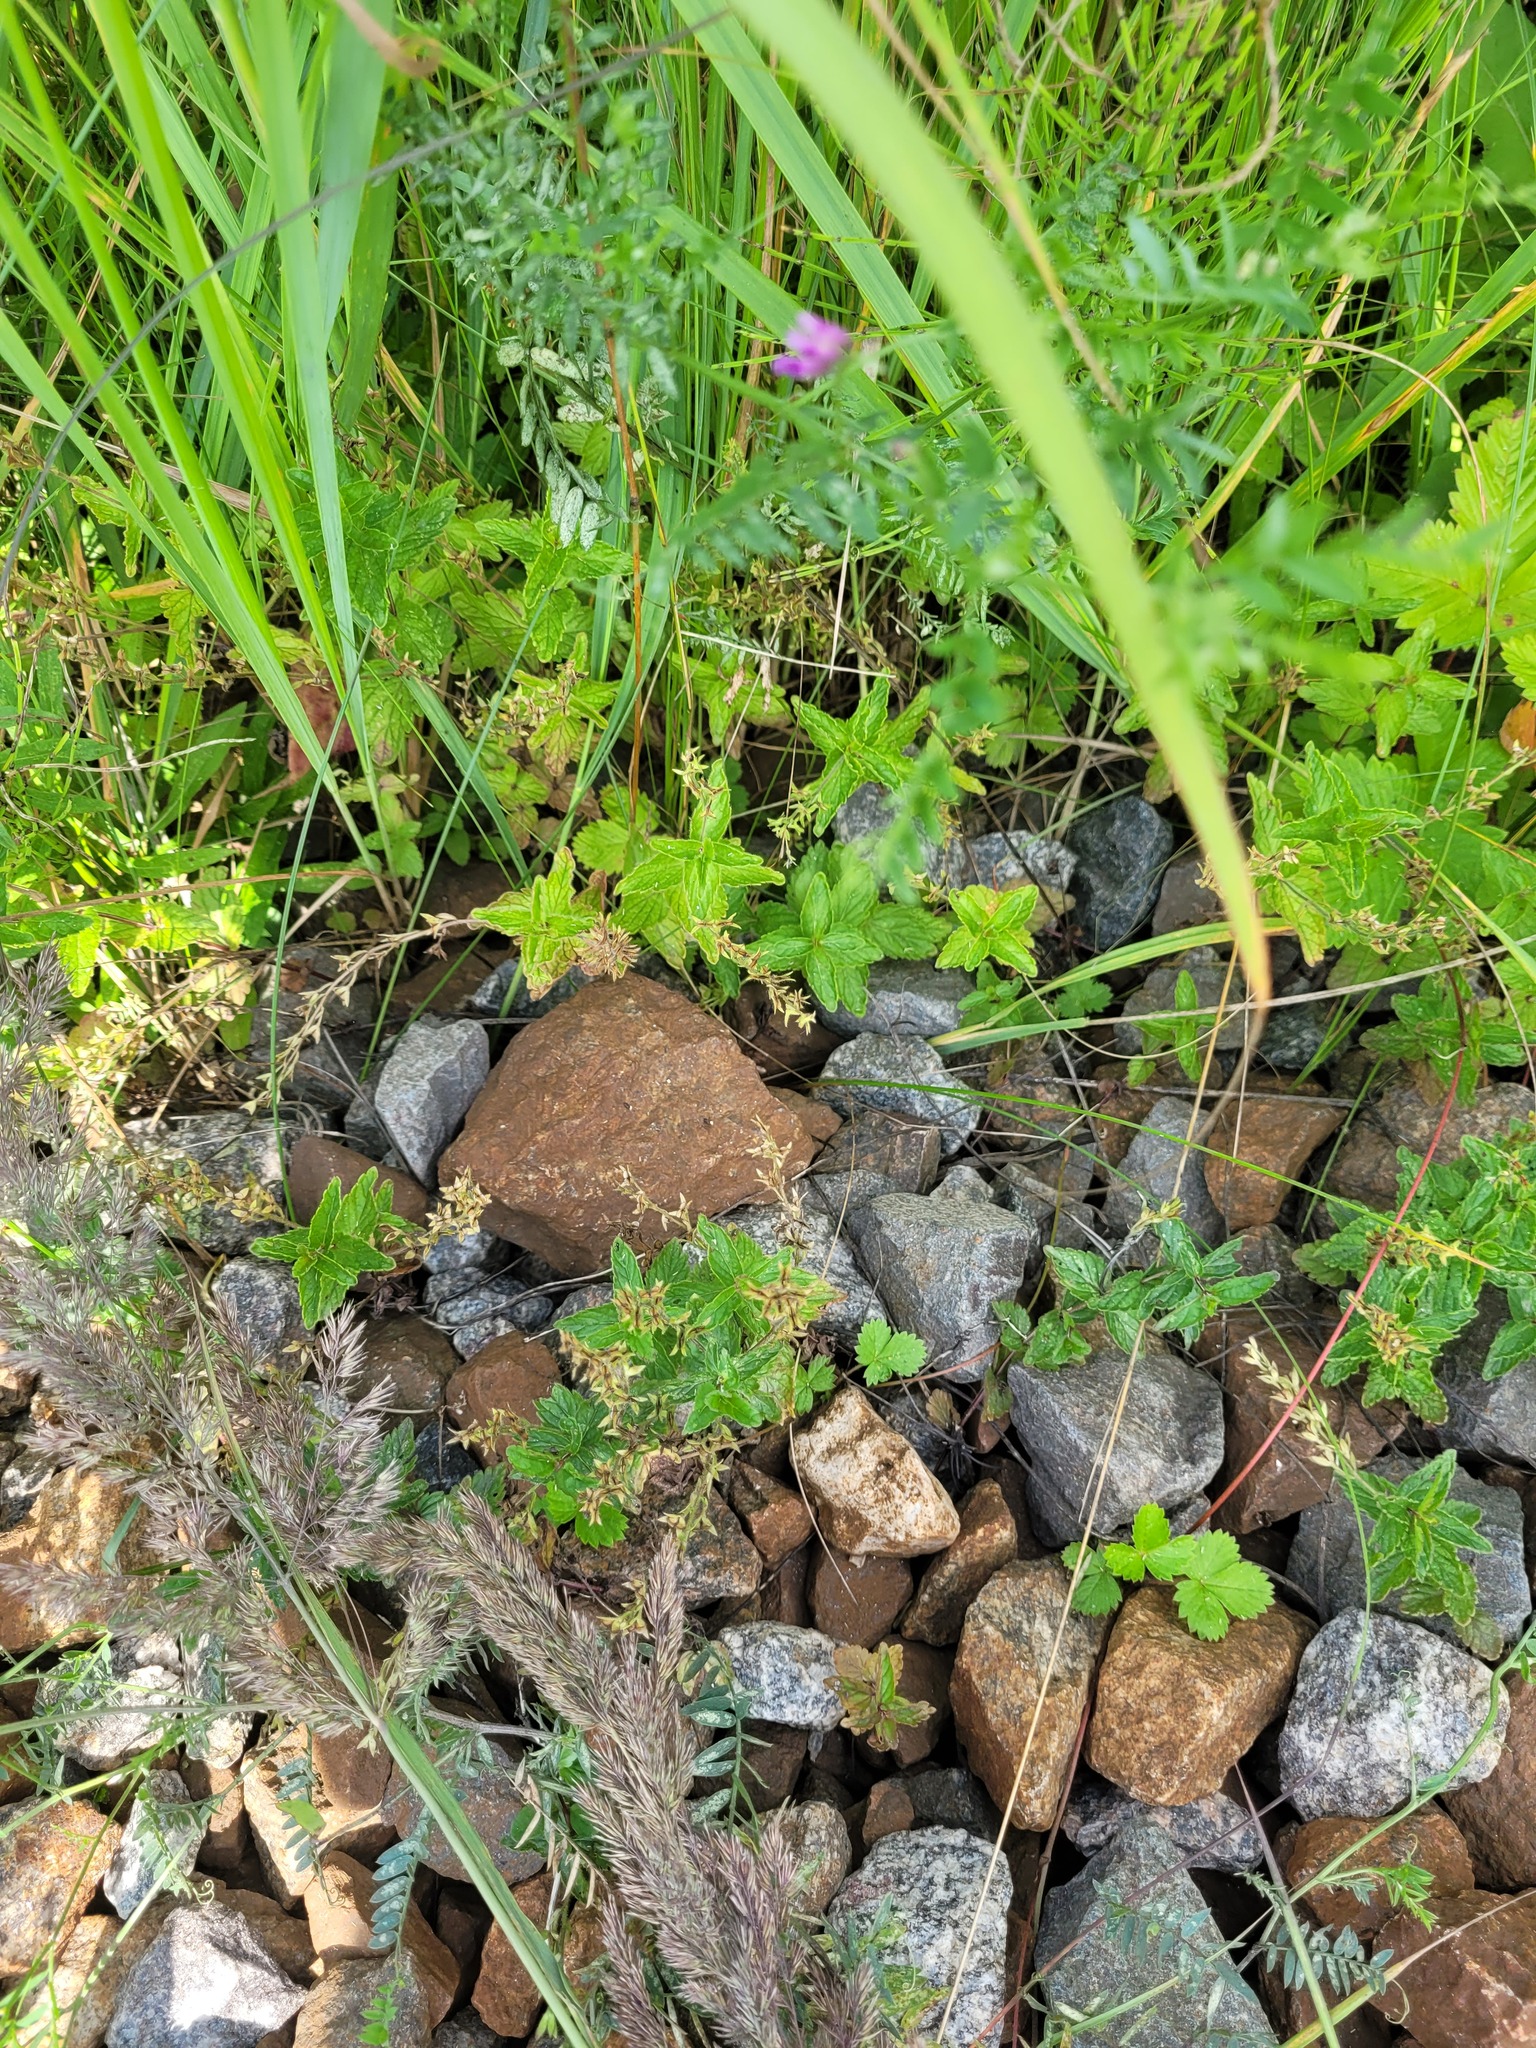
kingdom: Plantae
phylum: Tracheophyta
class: Magnoliopsida
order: Lamiales
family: Plantaginaceae
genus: Veronica
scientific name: Veronica chamaedrys
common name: Germander speedwell
